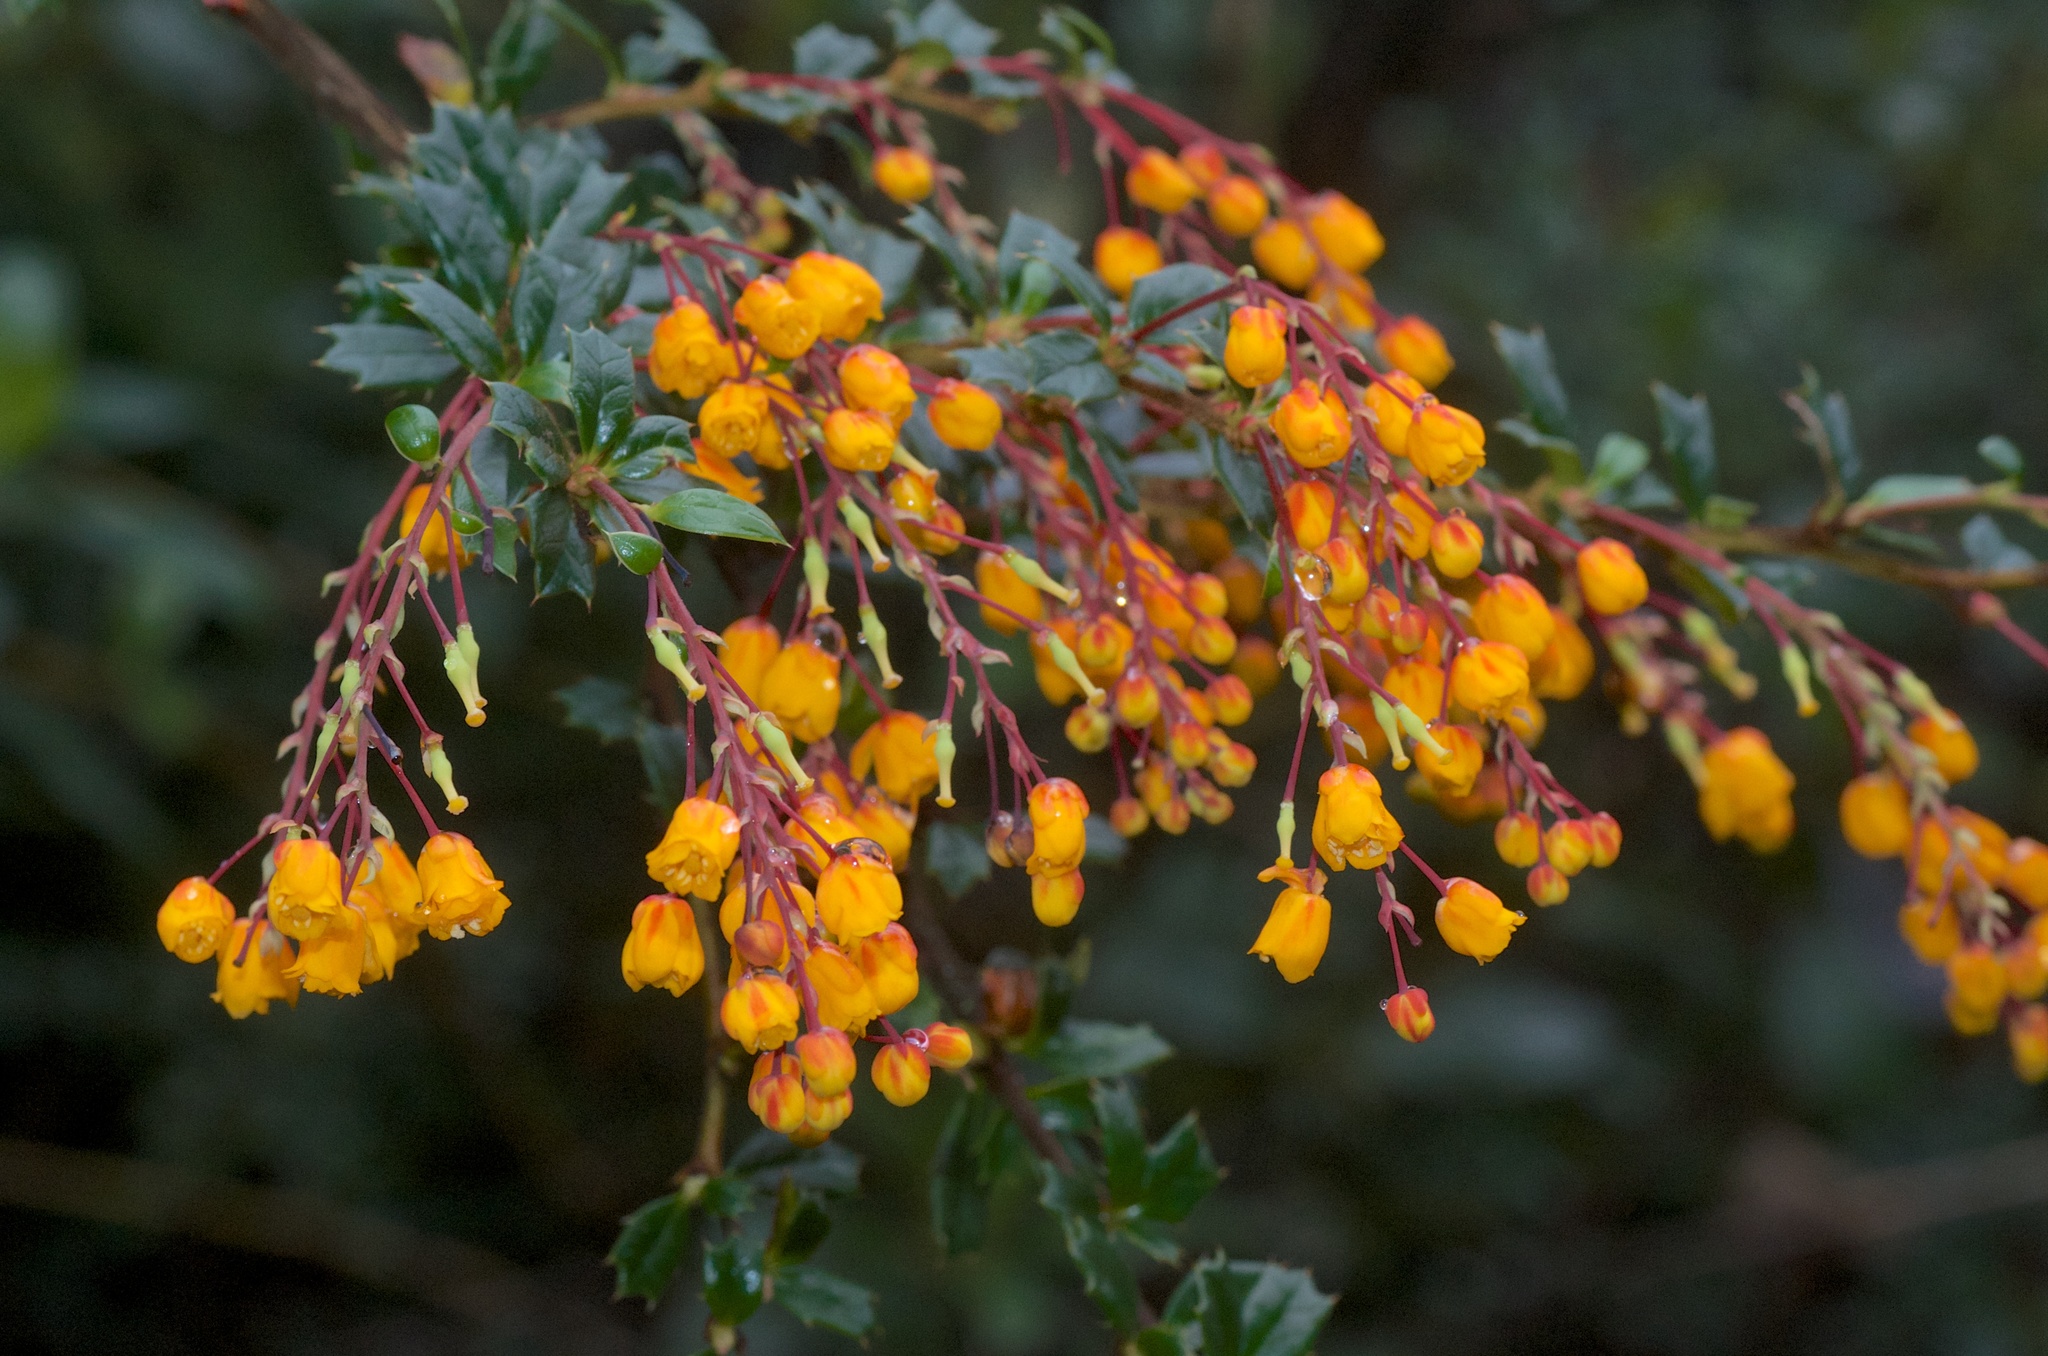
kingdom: Plantae
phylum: Tracheophyta
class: Magnoliopsida
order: Ranunculales
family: Berberidaceae
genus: Berberis
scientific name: Berberis darwinii
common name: Darwin's barberry
